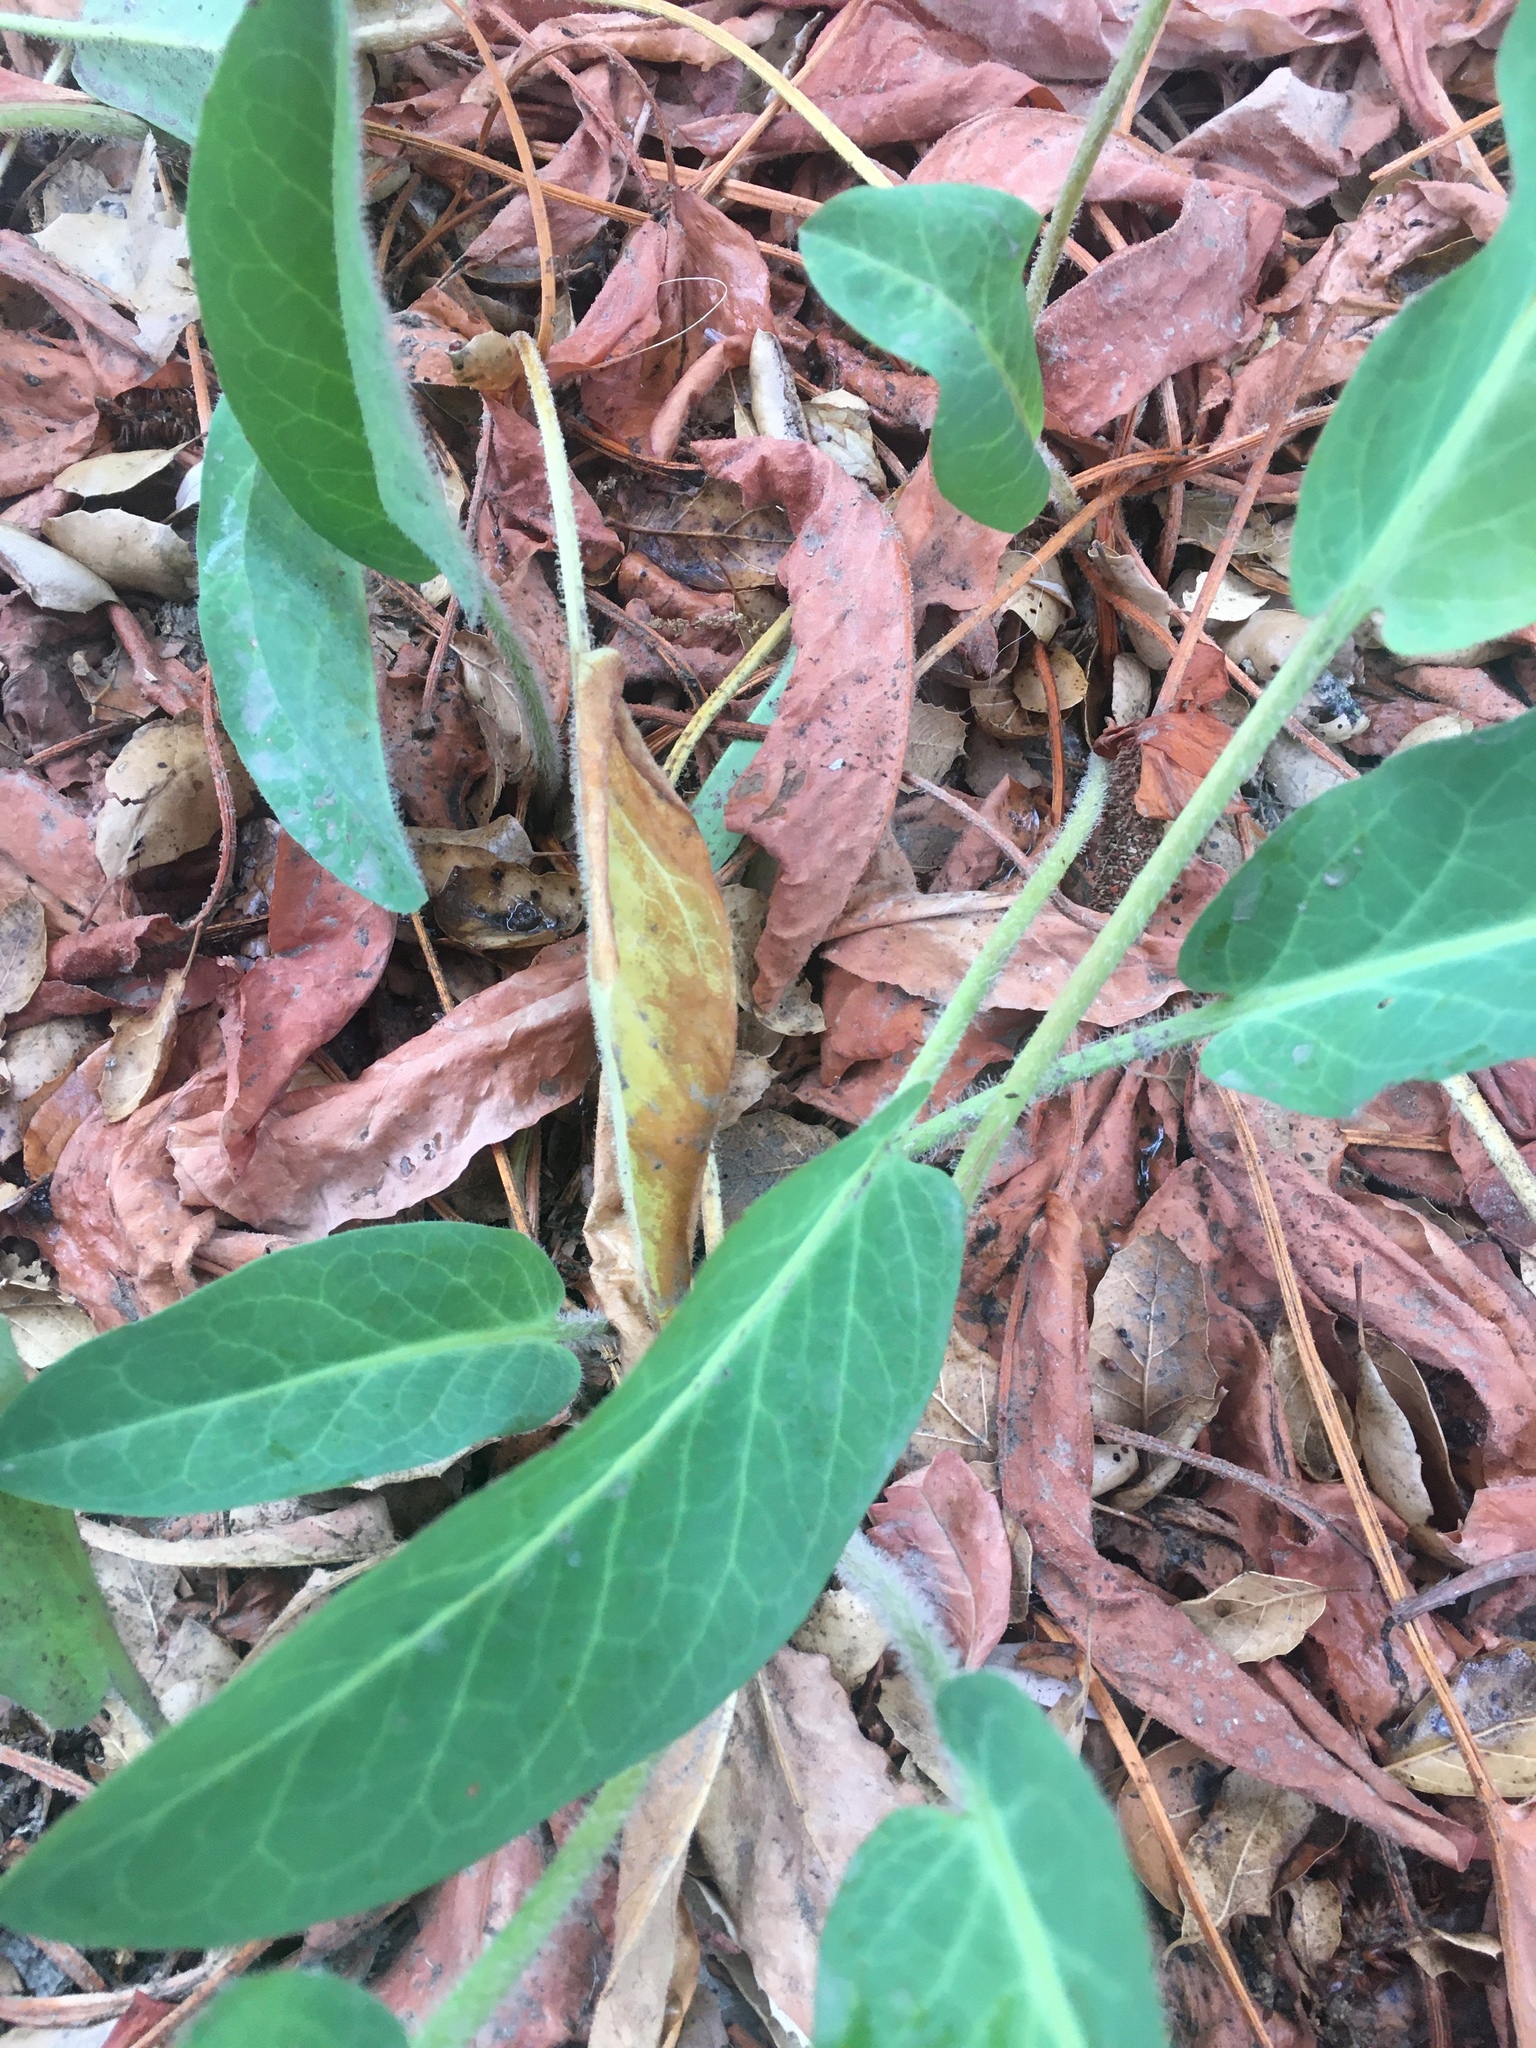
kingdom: Plantae
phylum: Tracheophyta
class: Magnoliopsida
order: Piperales
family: Saururaceae
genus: Anemopsis
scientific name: Anemopsis californica
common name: Apache-beads
